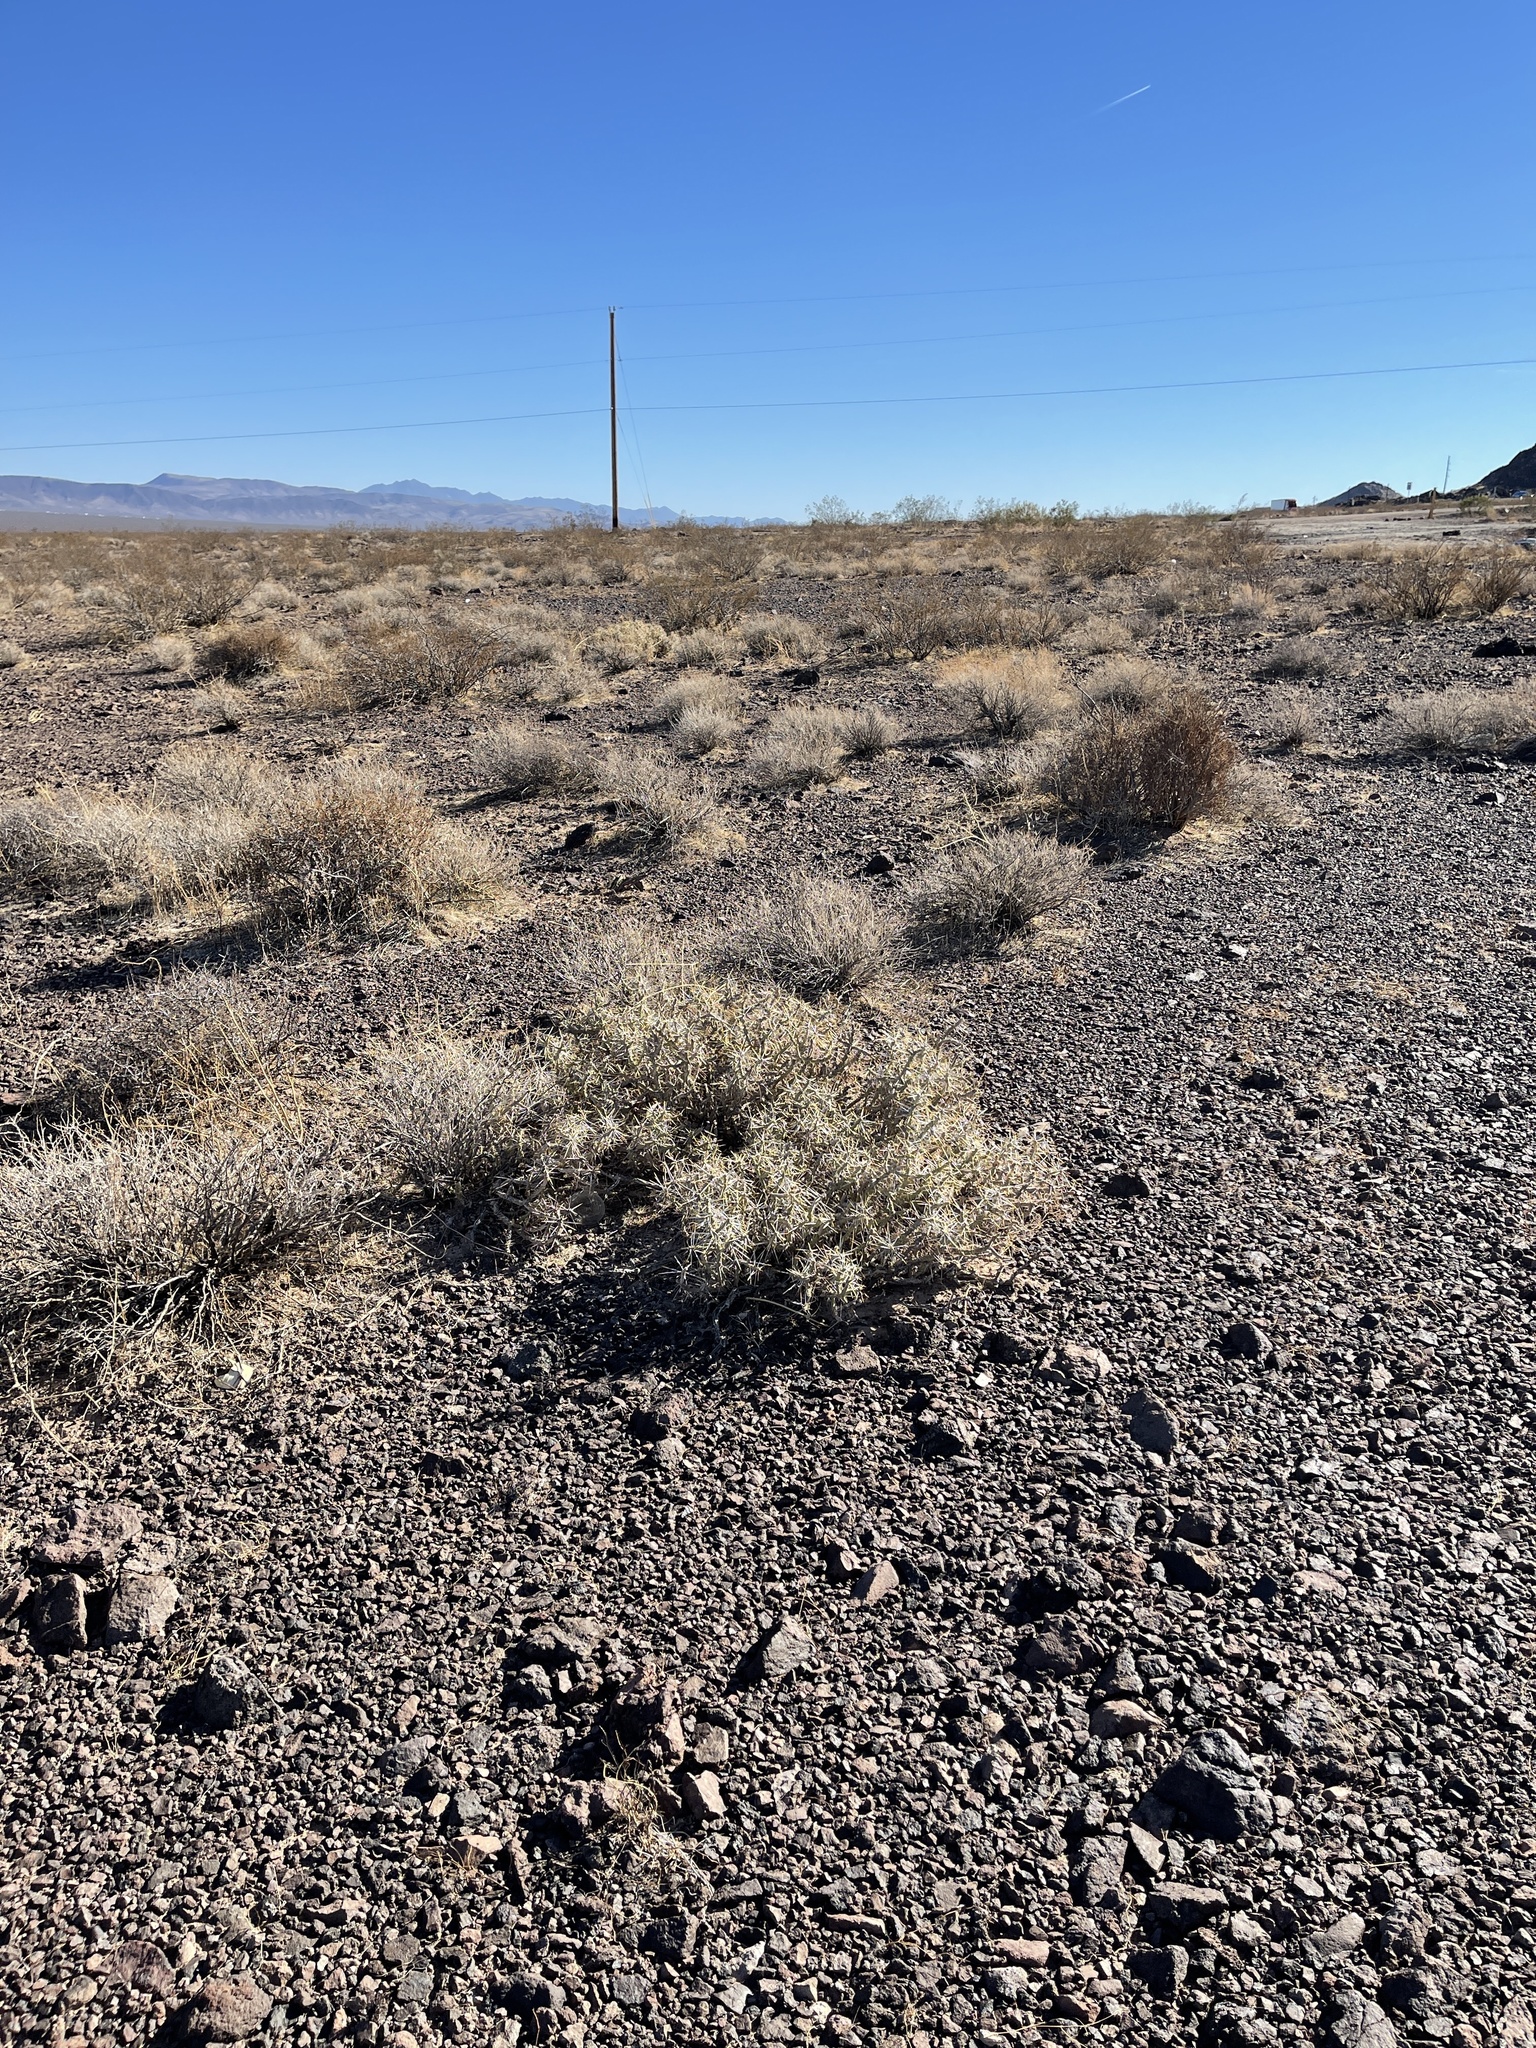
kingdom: Plantae
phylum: Tracheophyta
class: Magnoliopsida
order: Caryophyllales
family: Cactaceae
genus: Cylindropuntia
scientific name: Cylindropuntia ramosissima
